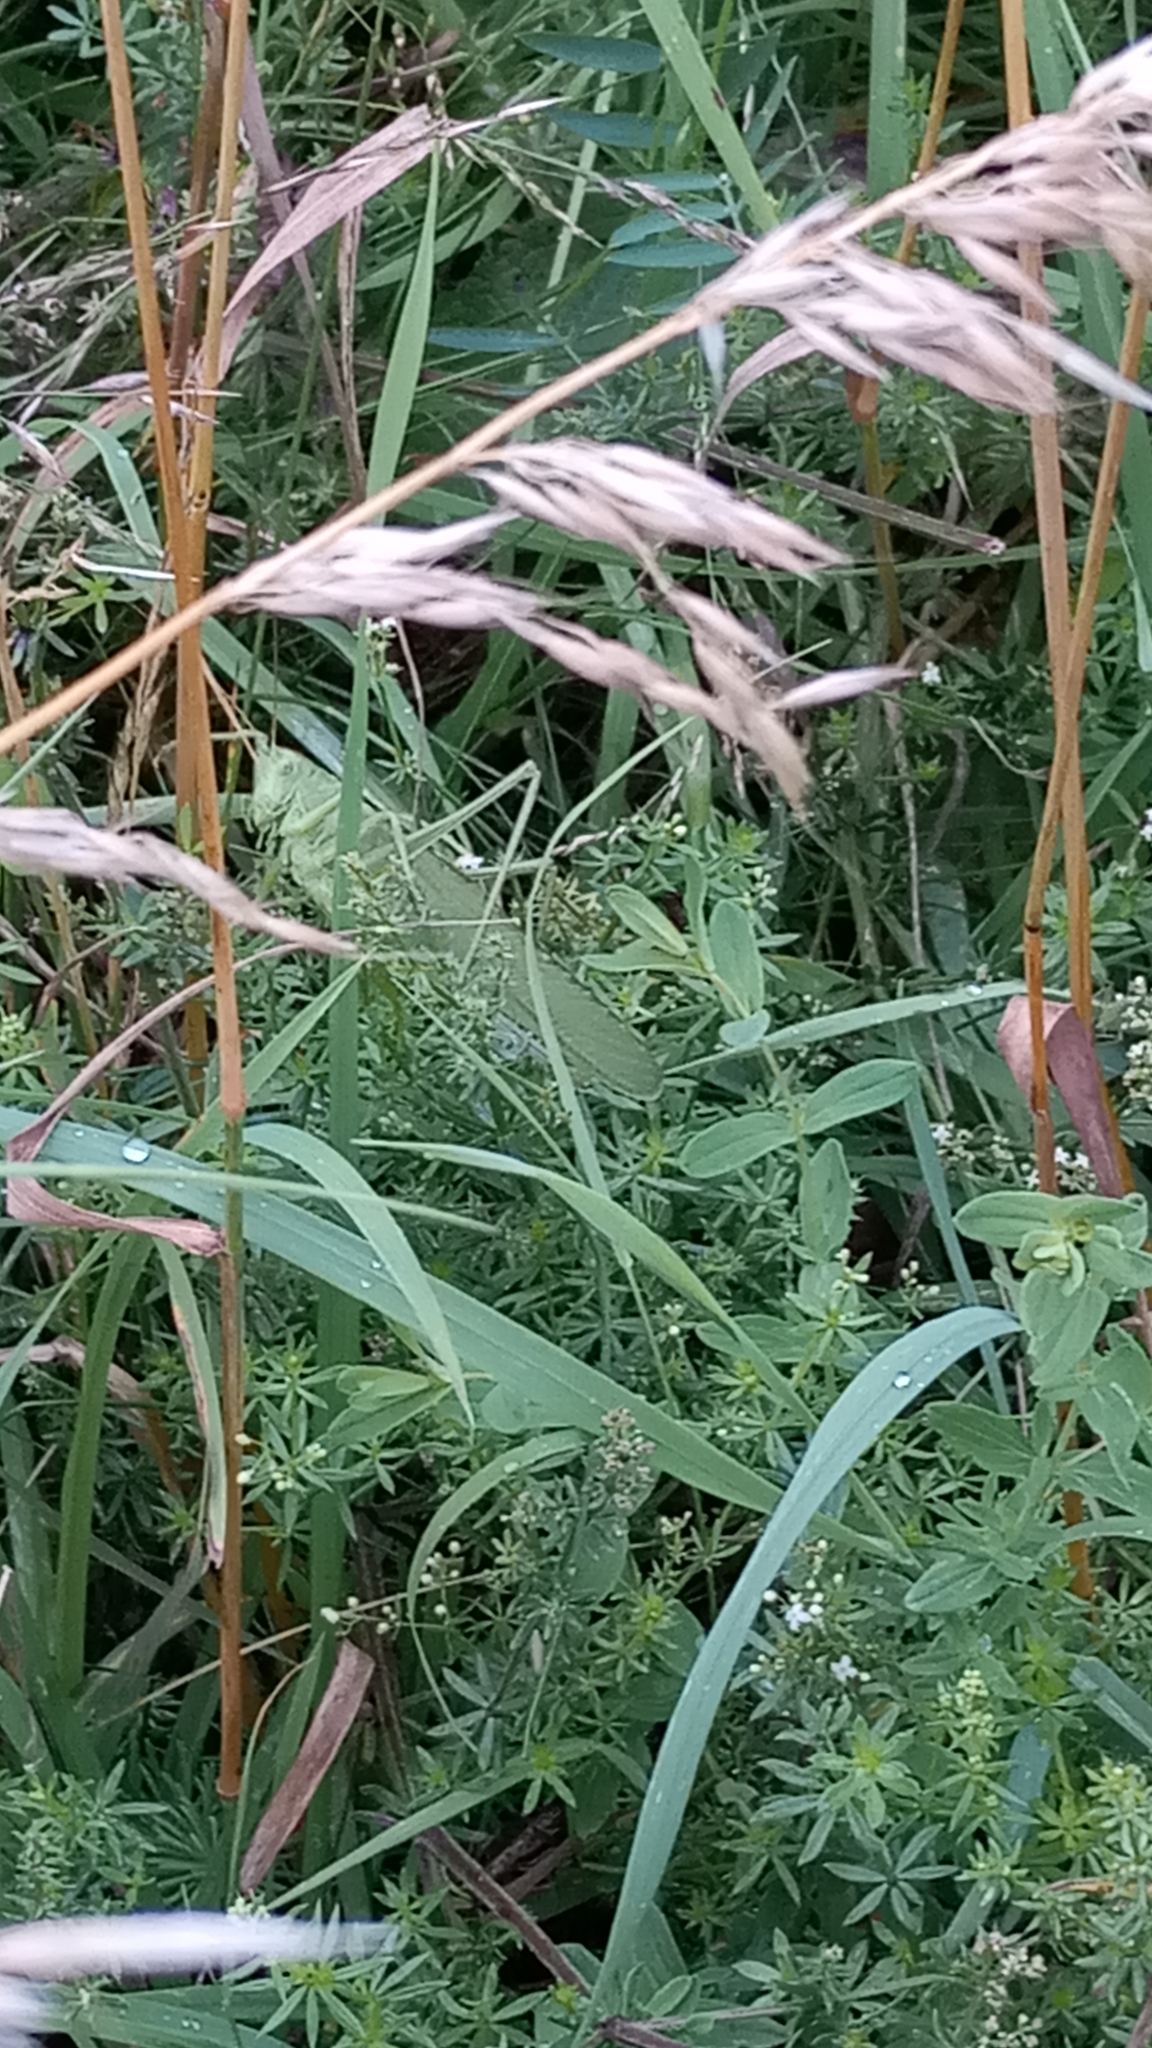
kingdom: Animalia
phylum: Arthropoda
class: Insecta
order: Orthoptera
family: Tettigoniidae
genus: Tettigonia
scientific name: Tettigonia viridissima
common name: Great green bush-cricket
